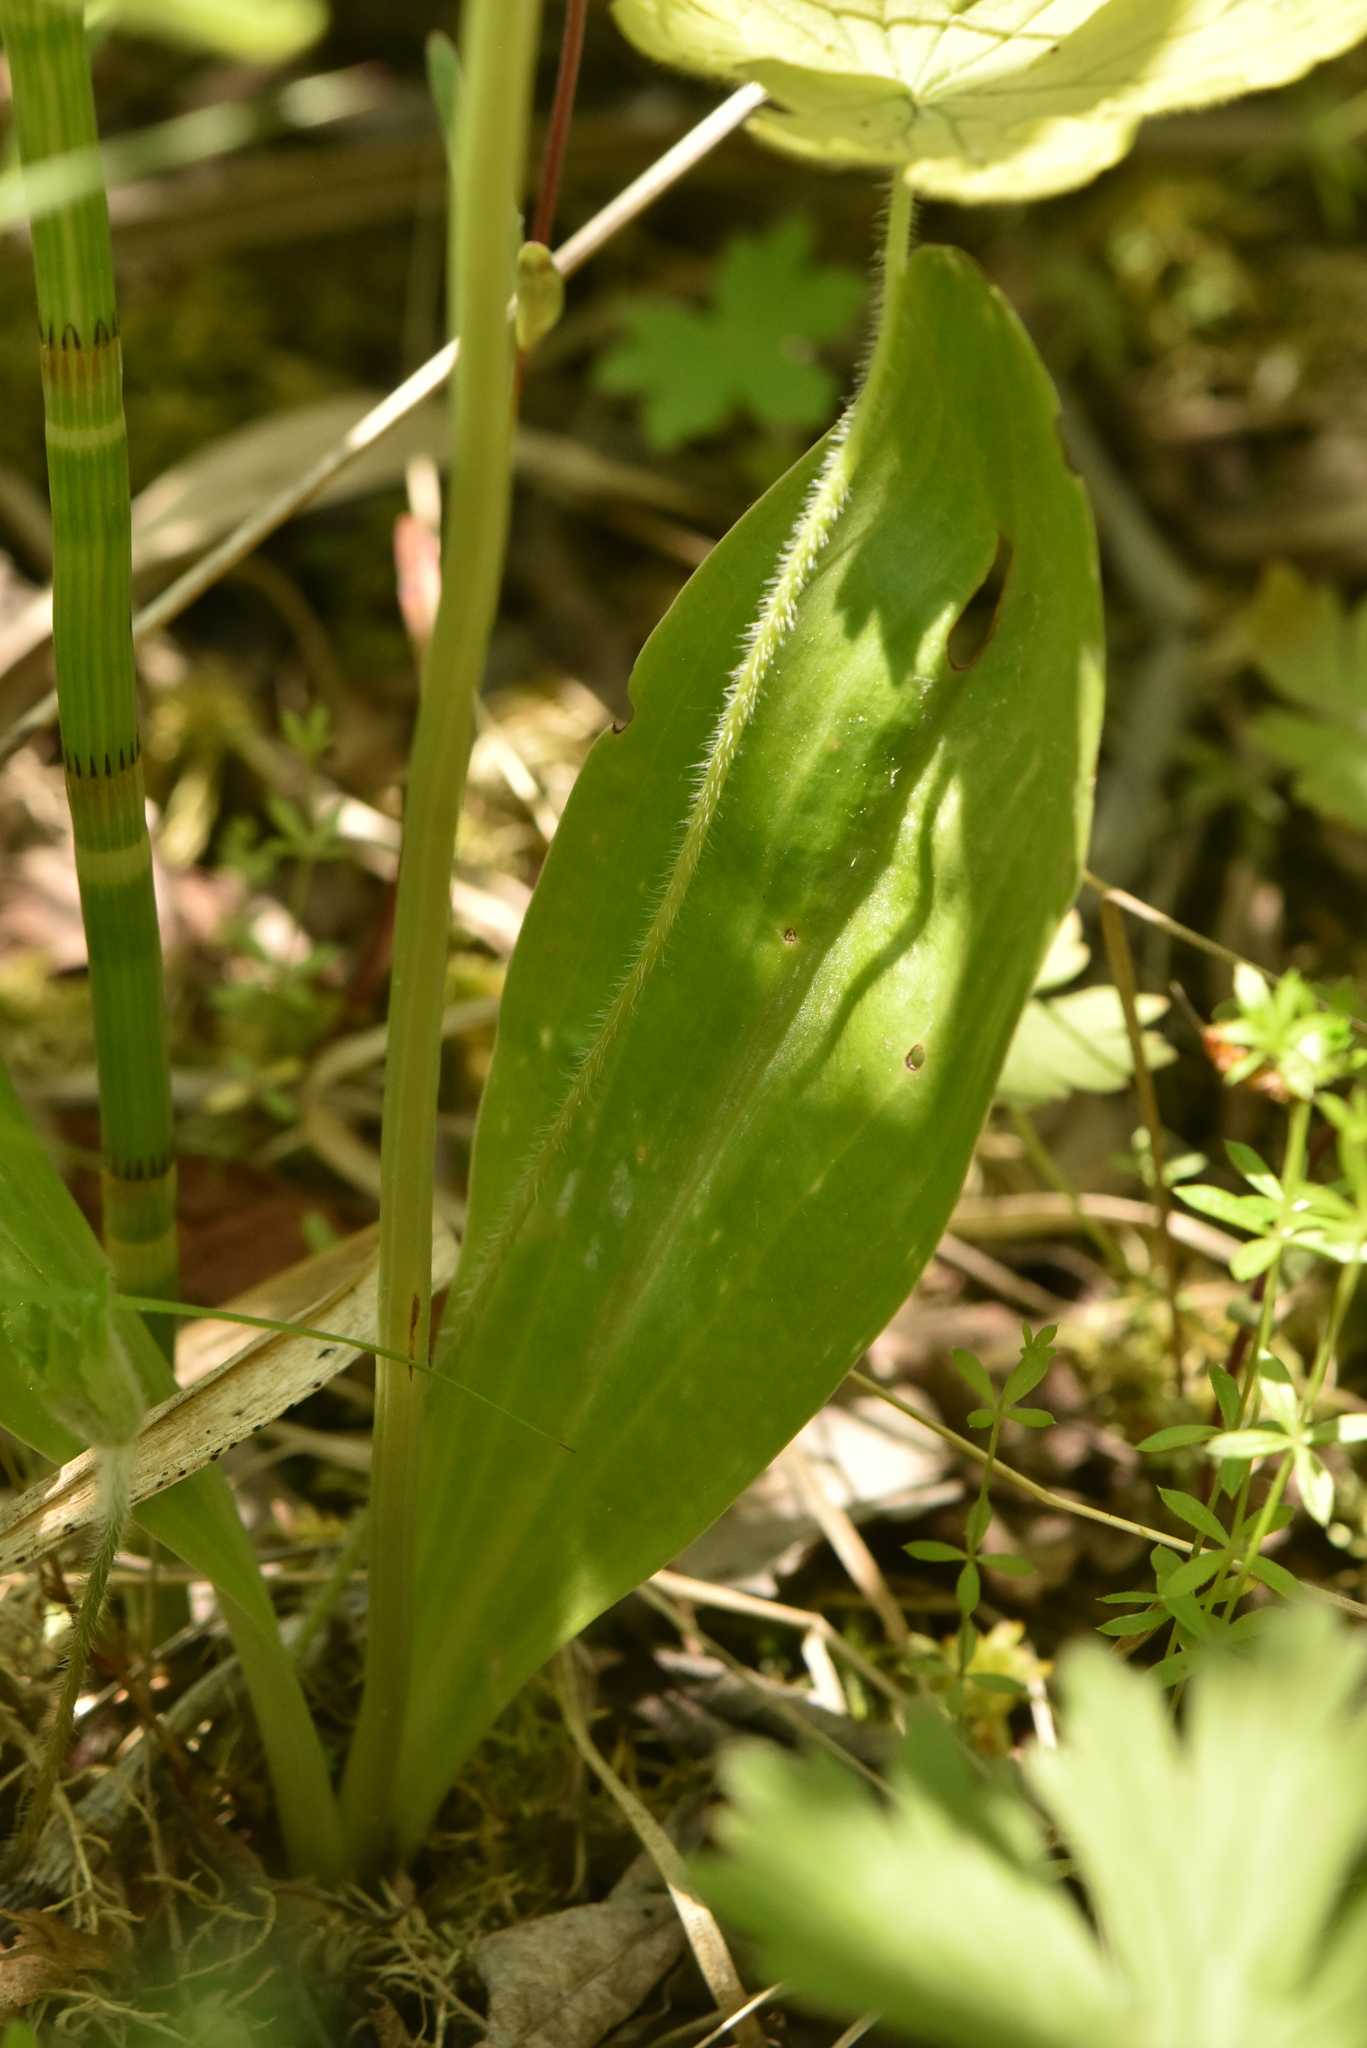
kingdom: Plantae
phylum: Tracheophyta
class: Liliopsida
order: Asparagales
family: Orchidaceae
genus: Platanthera
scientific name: Platanthera bifolia
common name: Lesser butterfly-orchid
